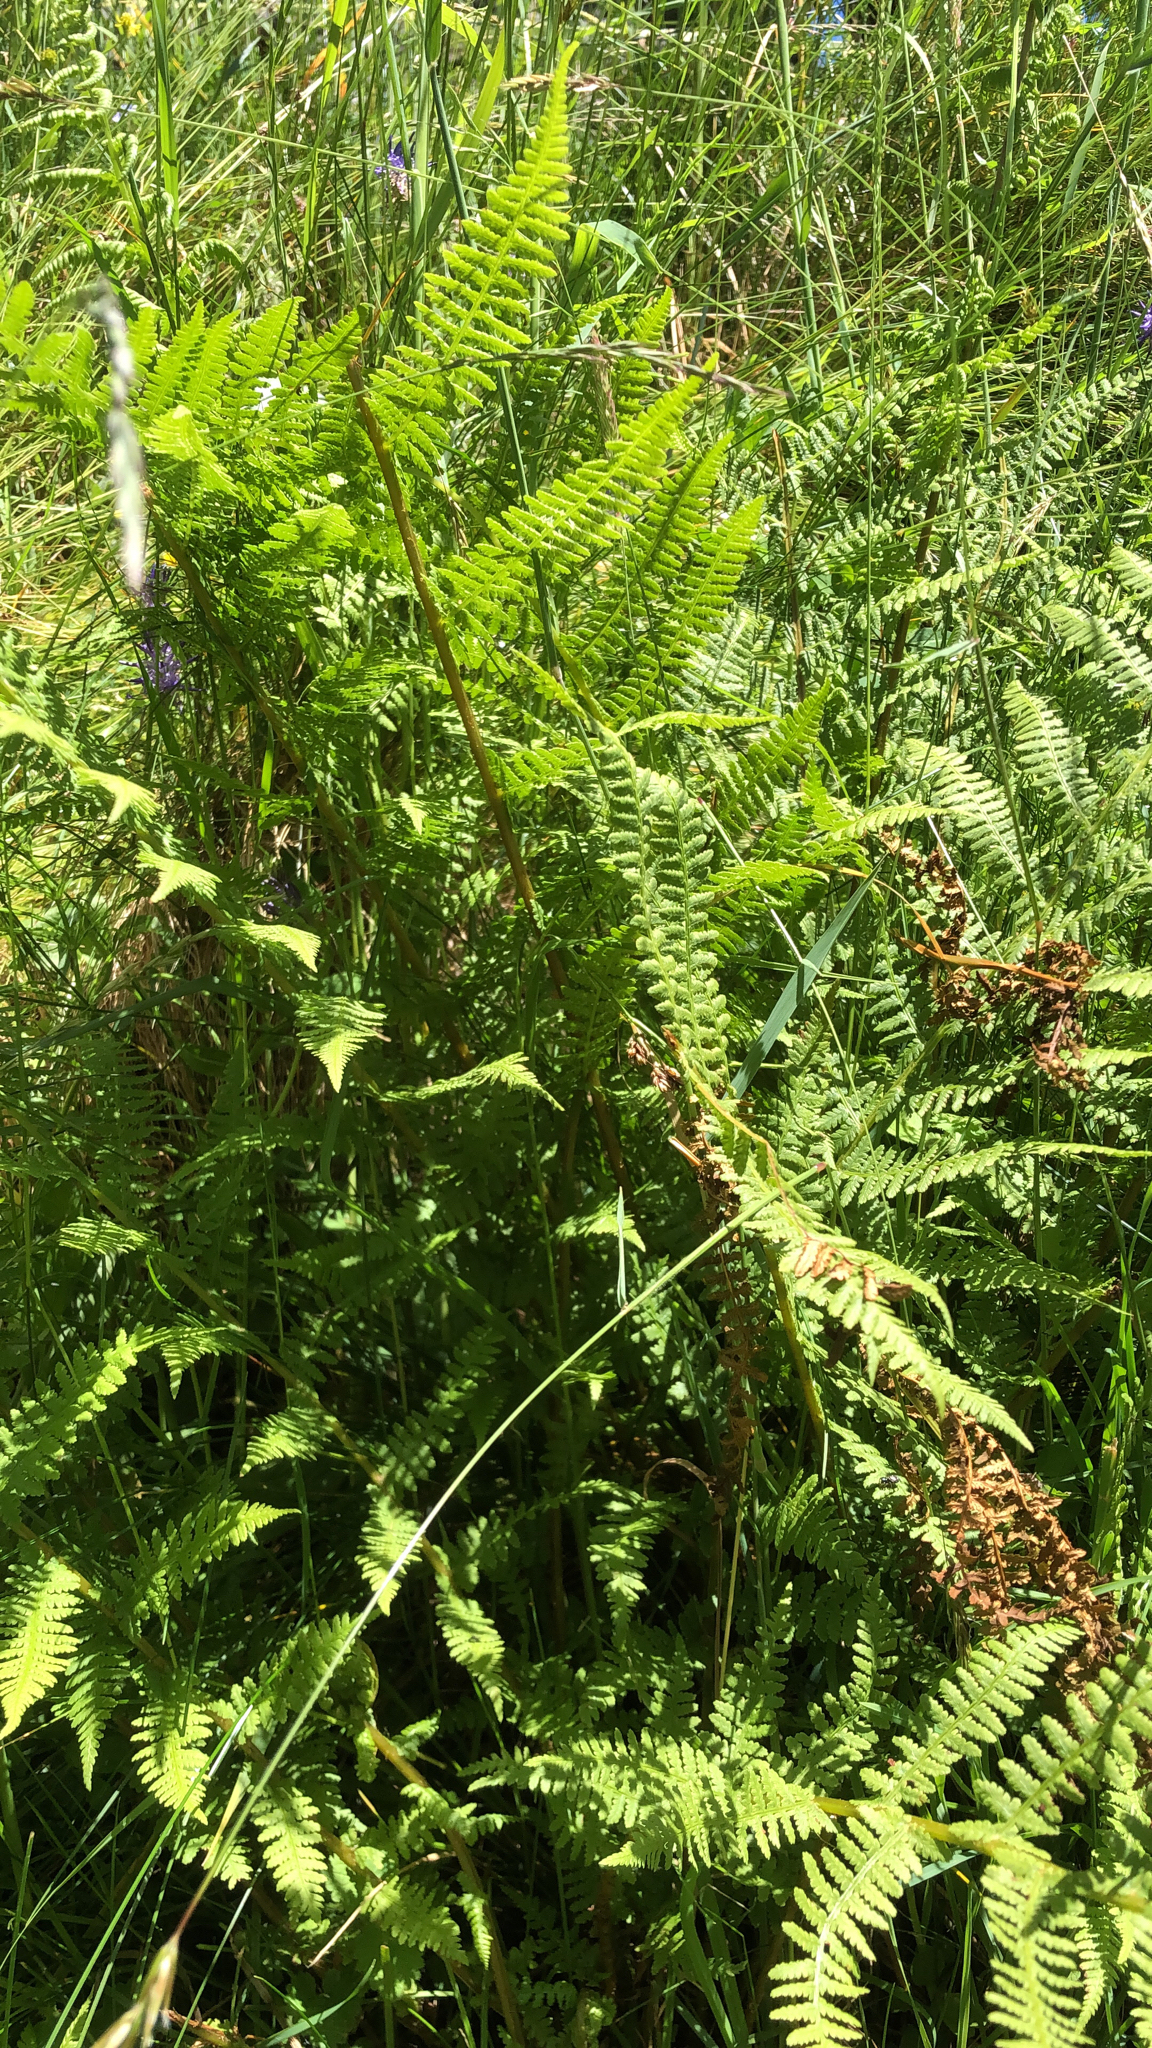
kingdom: Plantae
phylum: Tracheophyta
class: Polypodiopsida
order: Polypodiales
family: Athyriaceae
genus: Athyrium
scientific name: Athyrium filix-femina
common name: Lady fern
